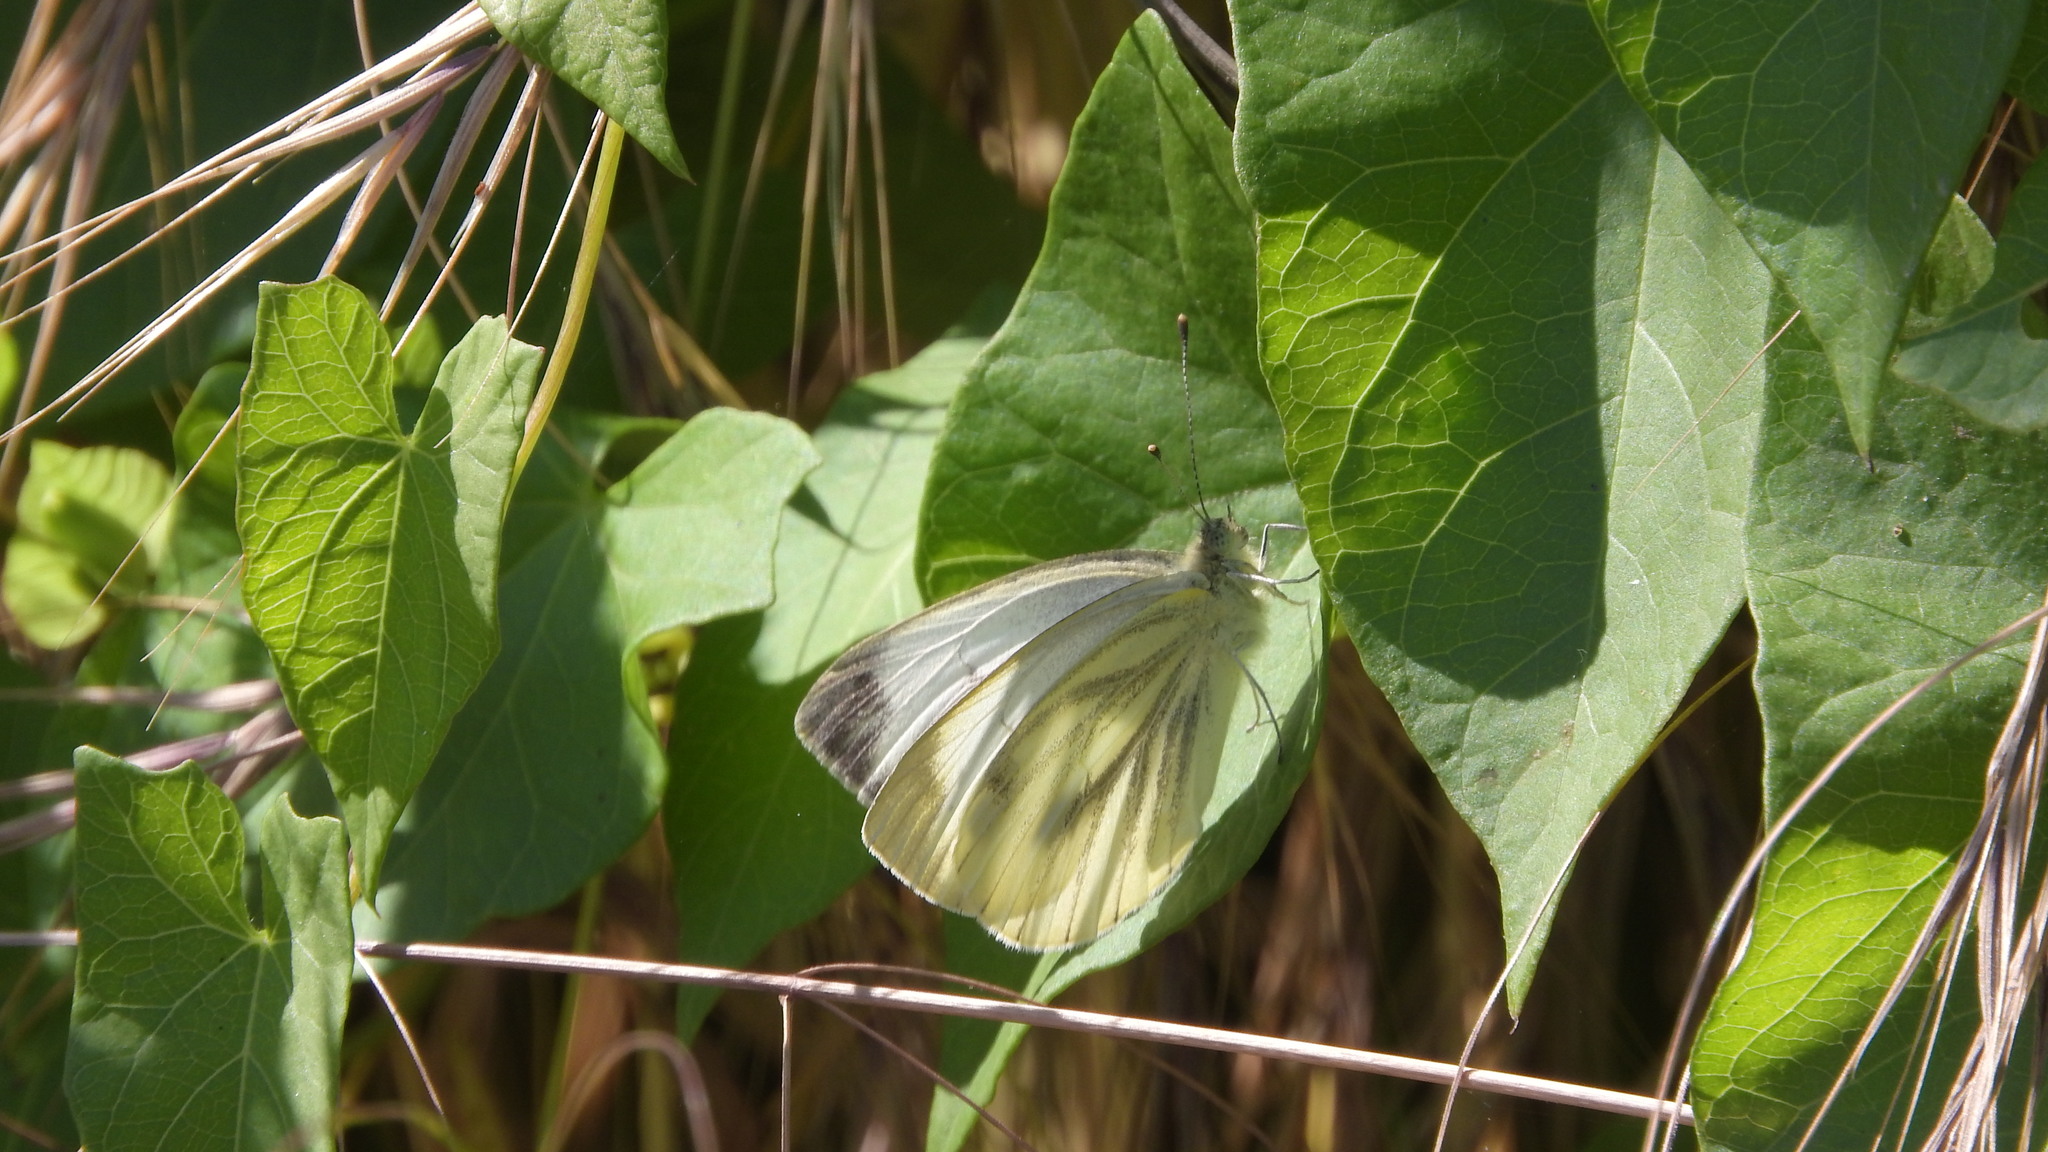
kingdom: Animalia
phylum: Arthropoda
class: Insecta
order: Lepidoptera
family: Pieridae
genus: Pieris
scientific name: Pieris napi
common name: Green-veined white
